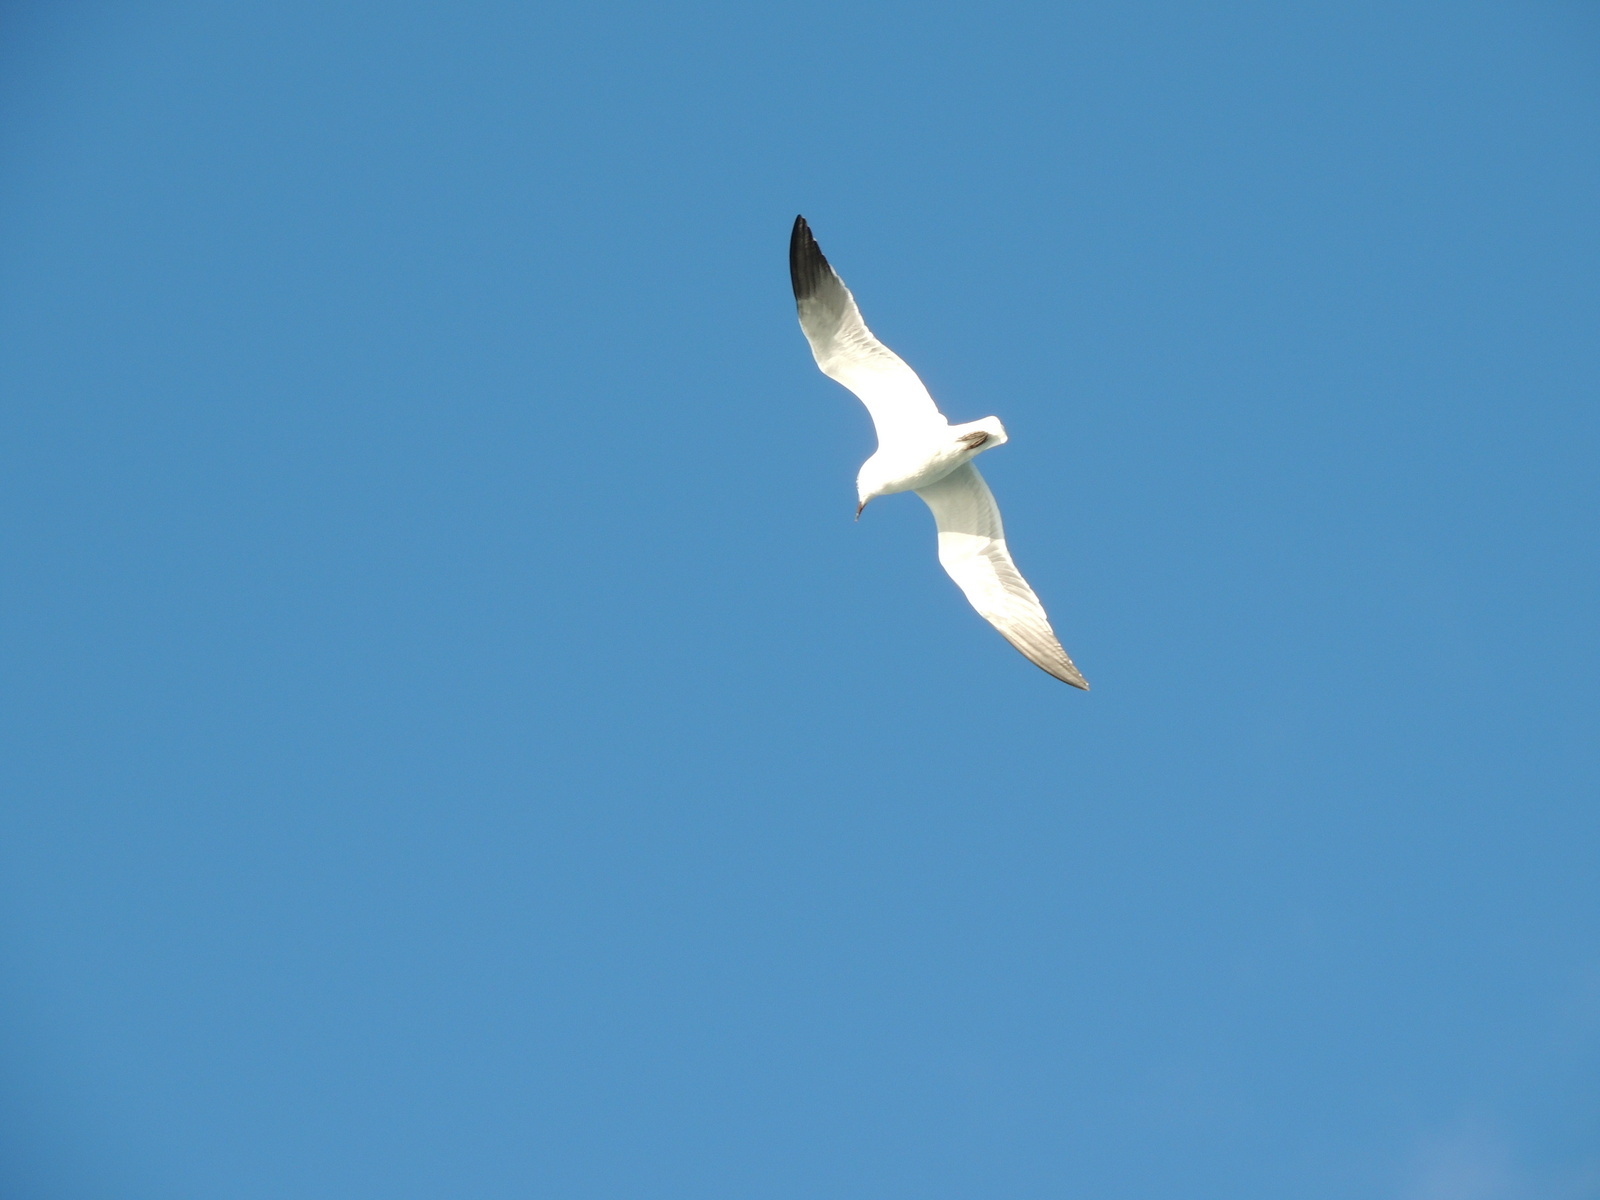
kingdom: Animalia
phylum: Chordata
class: Aves
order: Charadriiformes
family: Laridae
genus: Leucophaeus
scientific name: Leucophaeus atricilla
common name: Laughing gull
